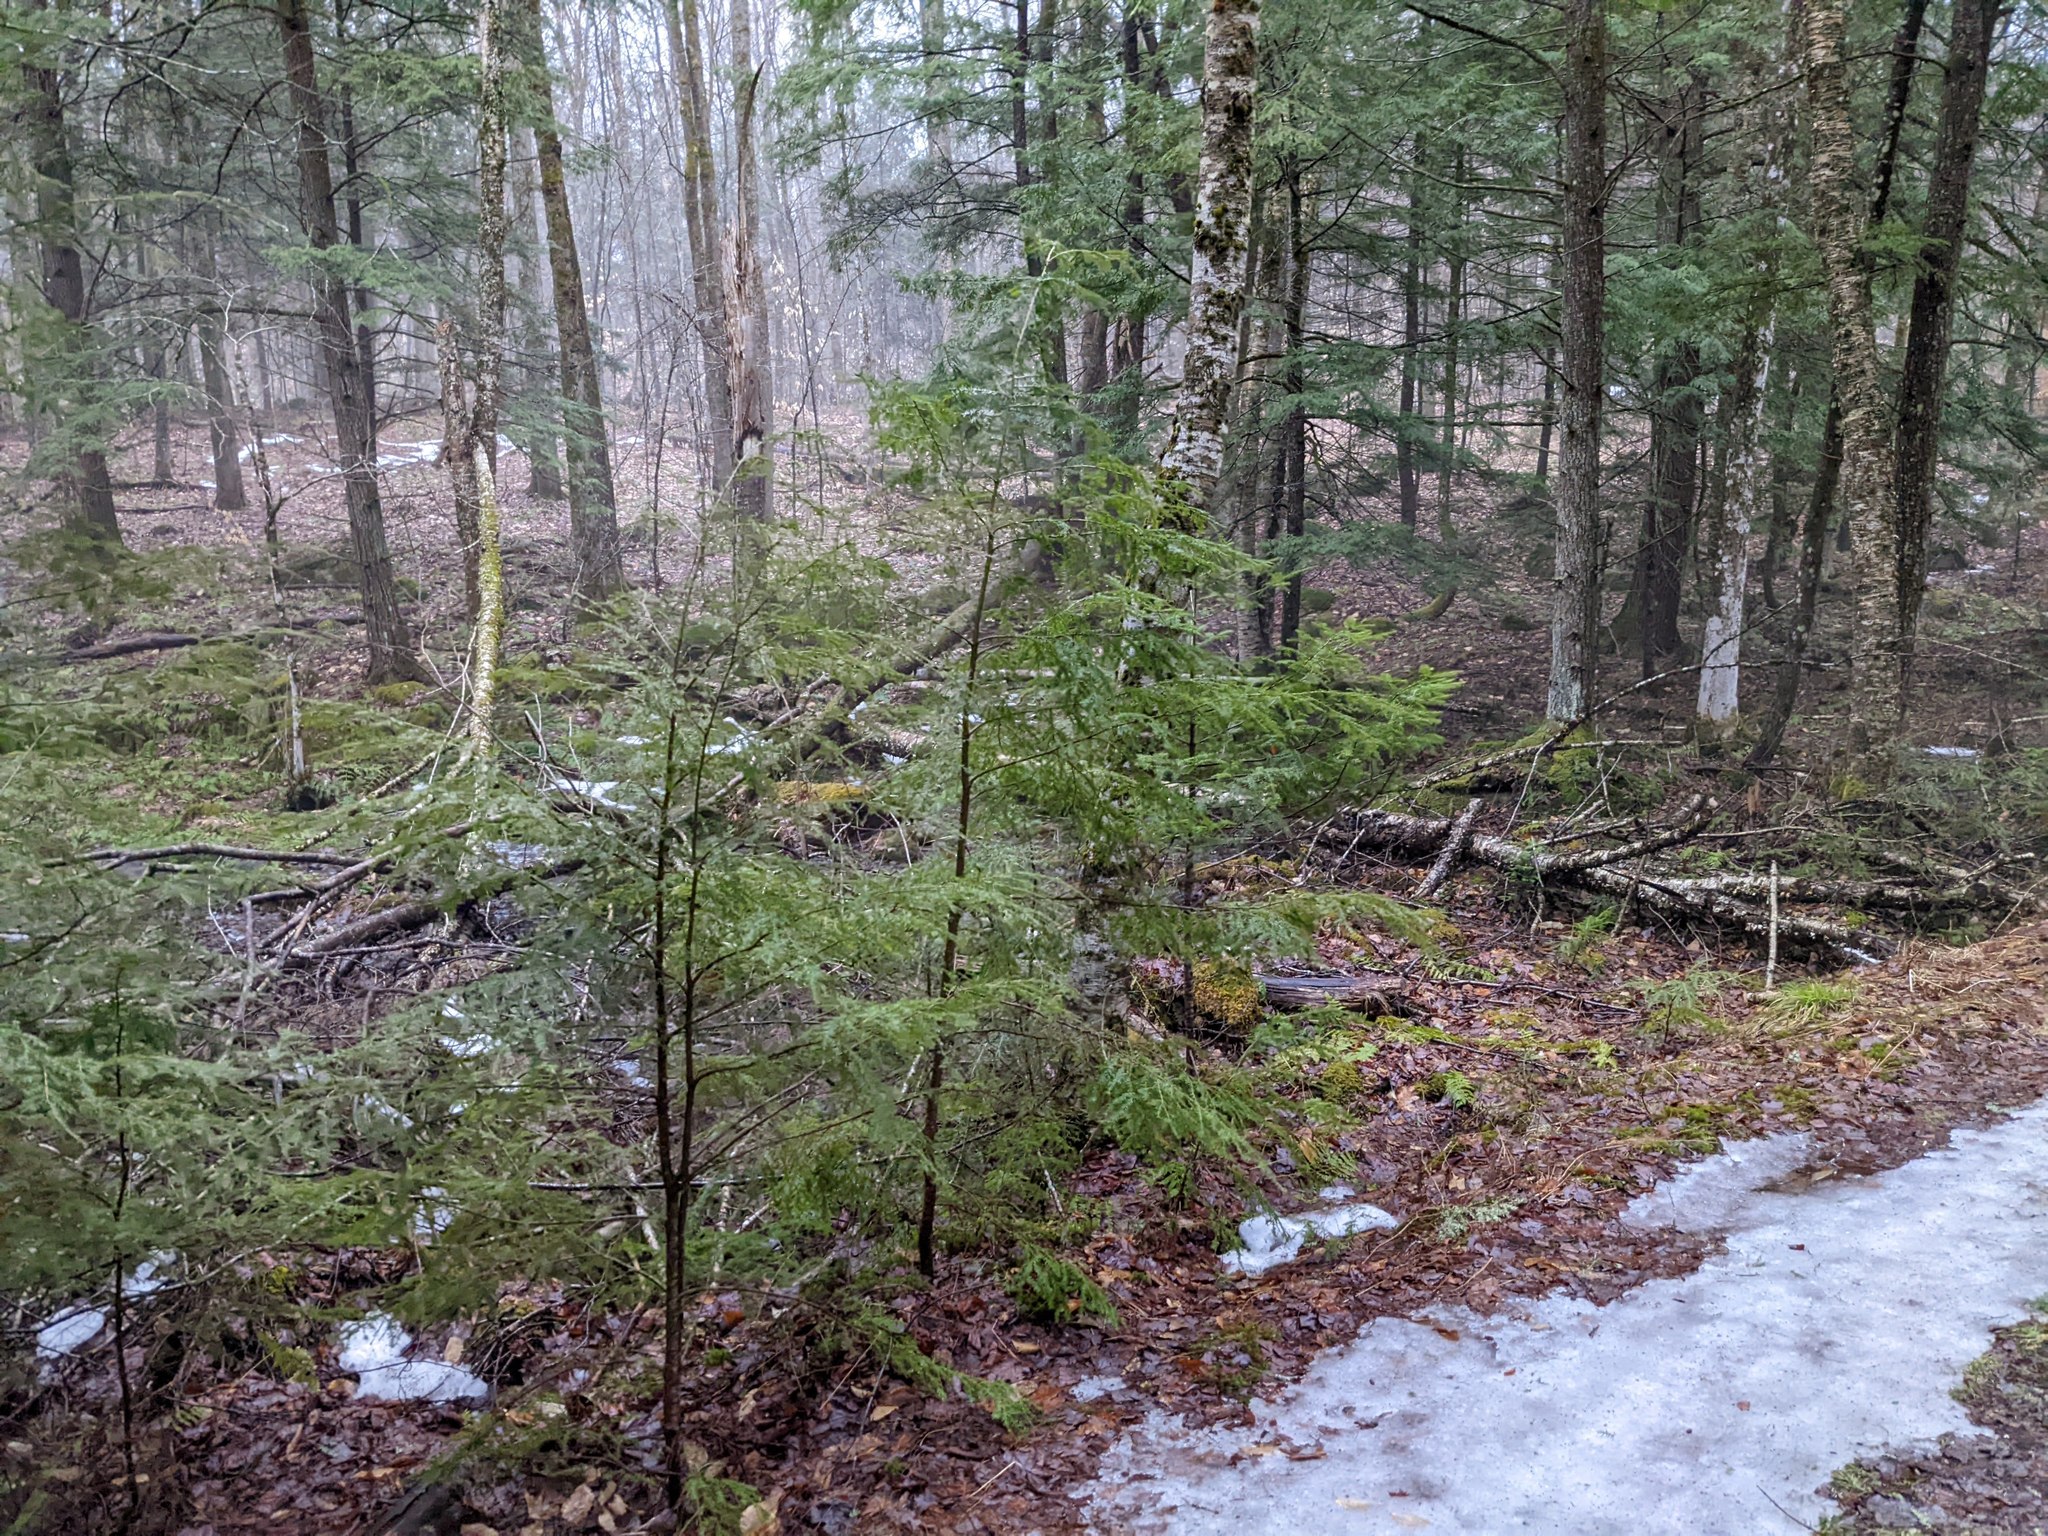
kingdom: Plantae
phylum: Tracheophyta
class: Pinopsida
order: Pinales
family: Pinaceae
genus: Tsuga
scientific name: Tsuga canadensis
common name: Eastern hemlock
